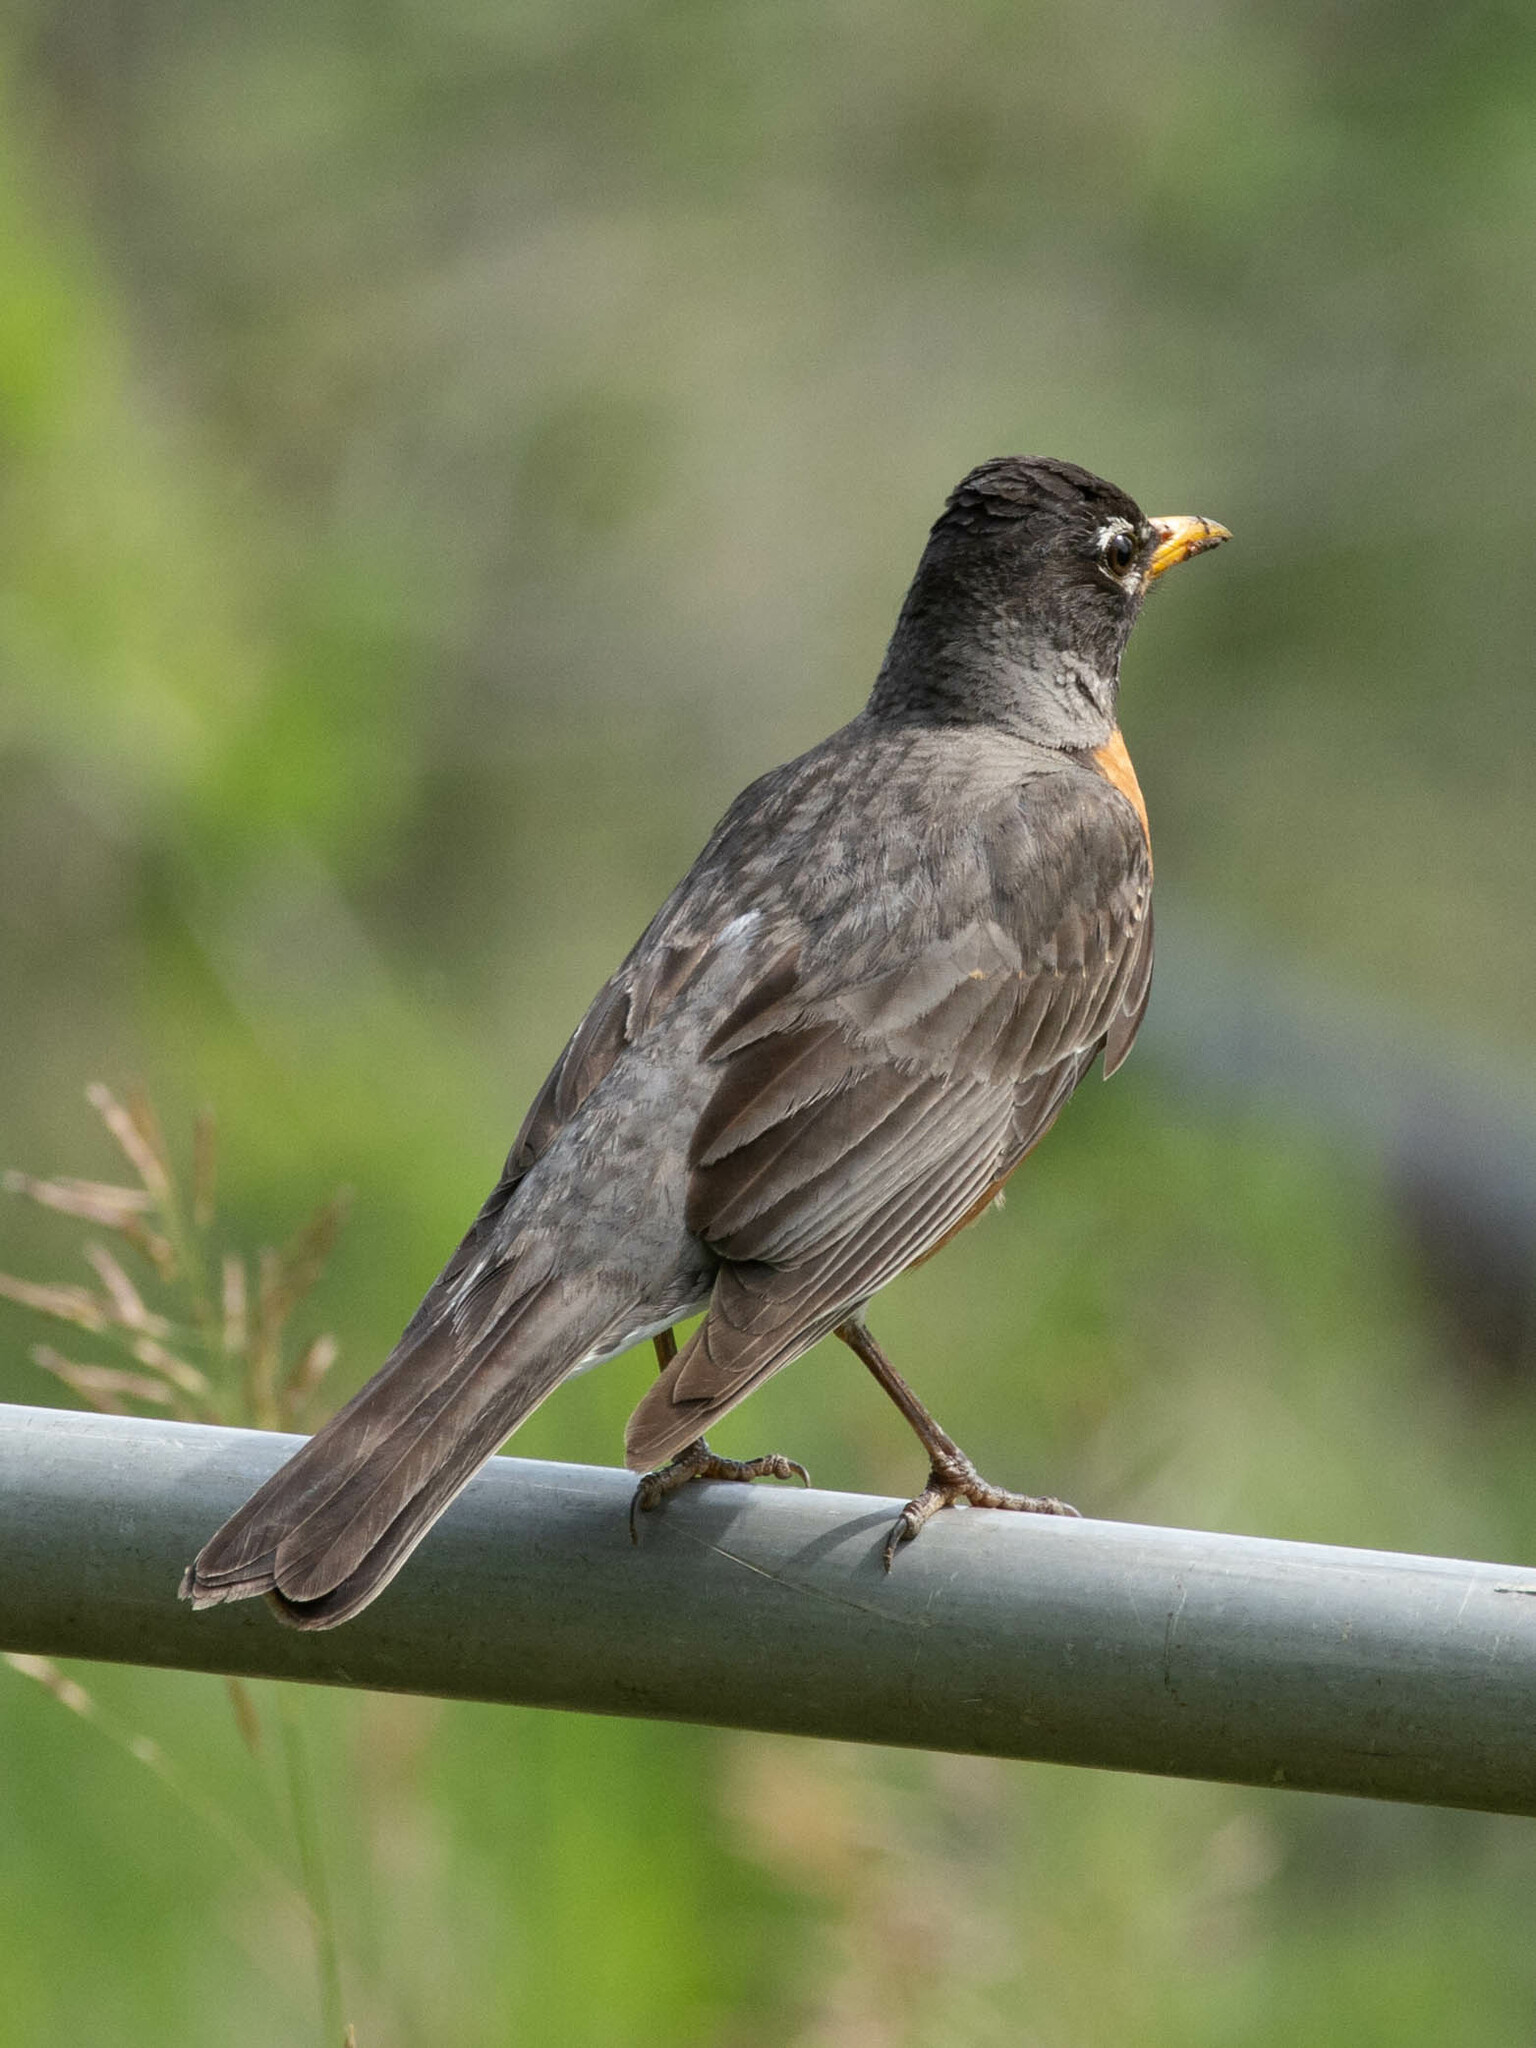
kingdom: Animalia
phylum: Chordata
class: Aves
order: Passeriformes
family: Turdidae
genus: Turdus
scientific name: Turdus migratorius
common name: American robin
